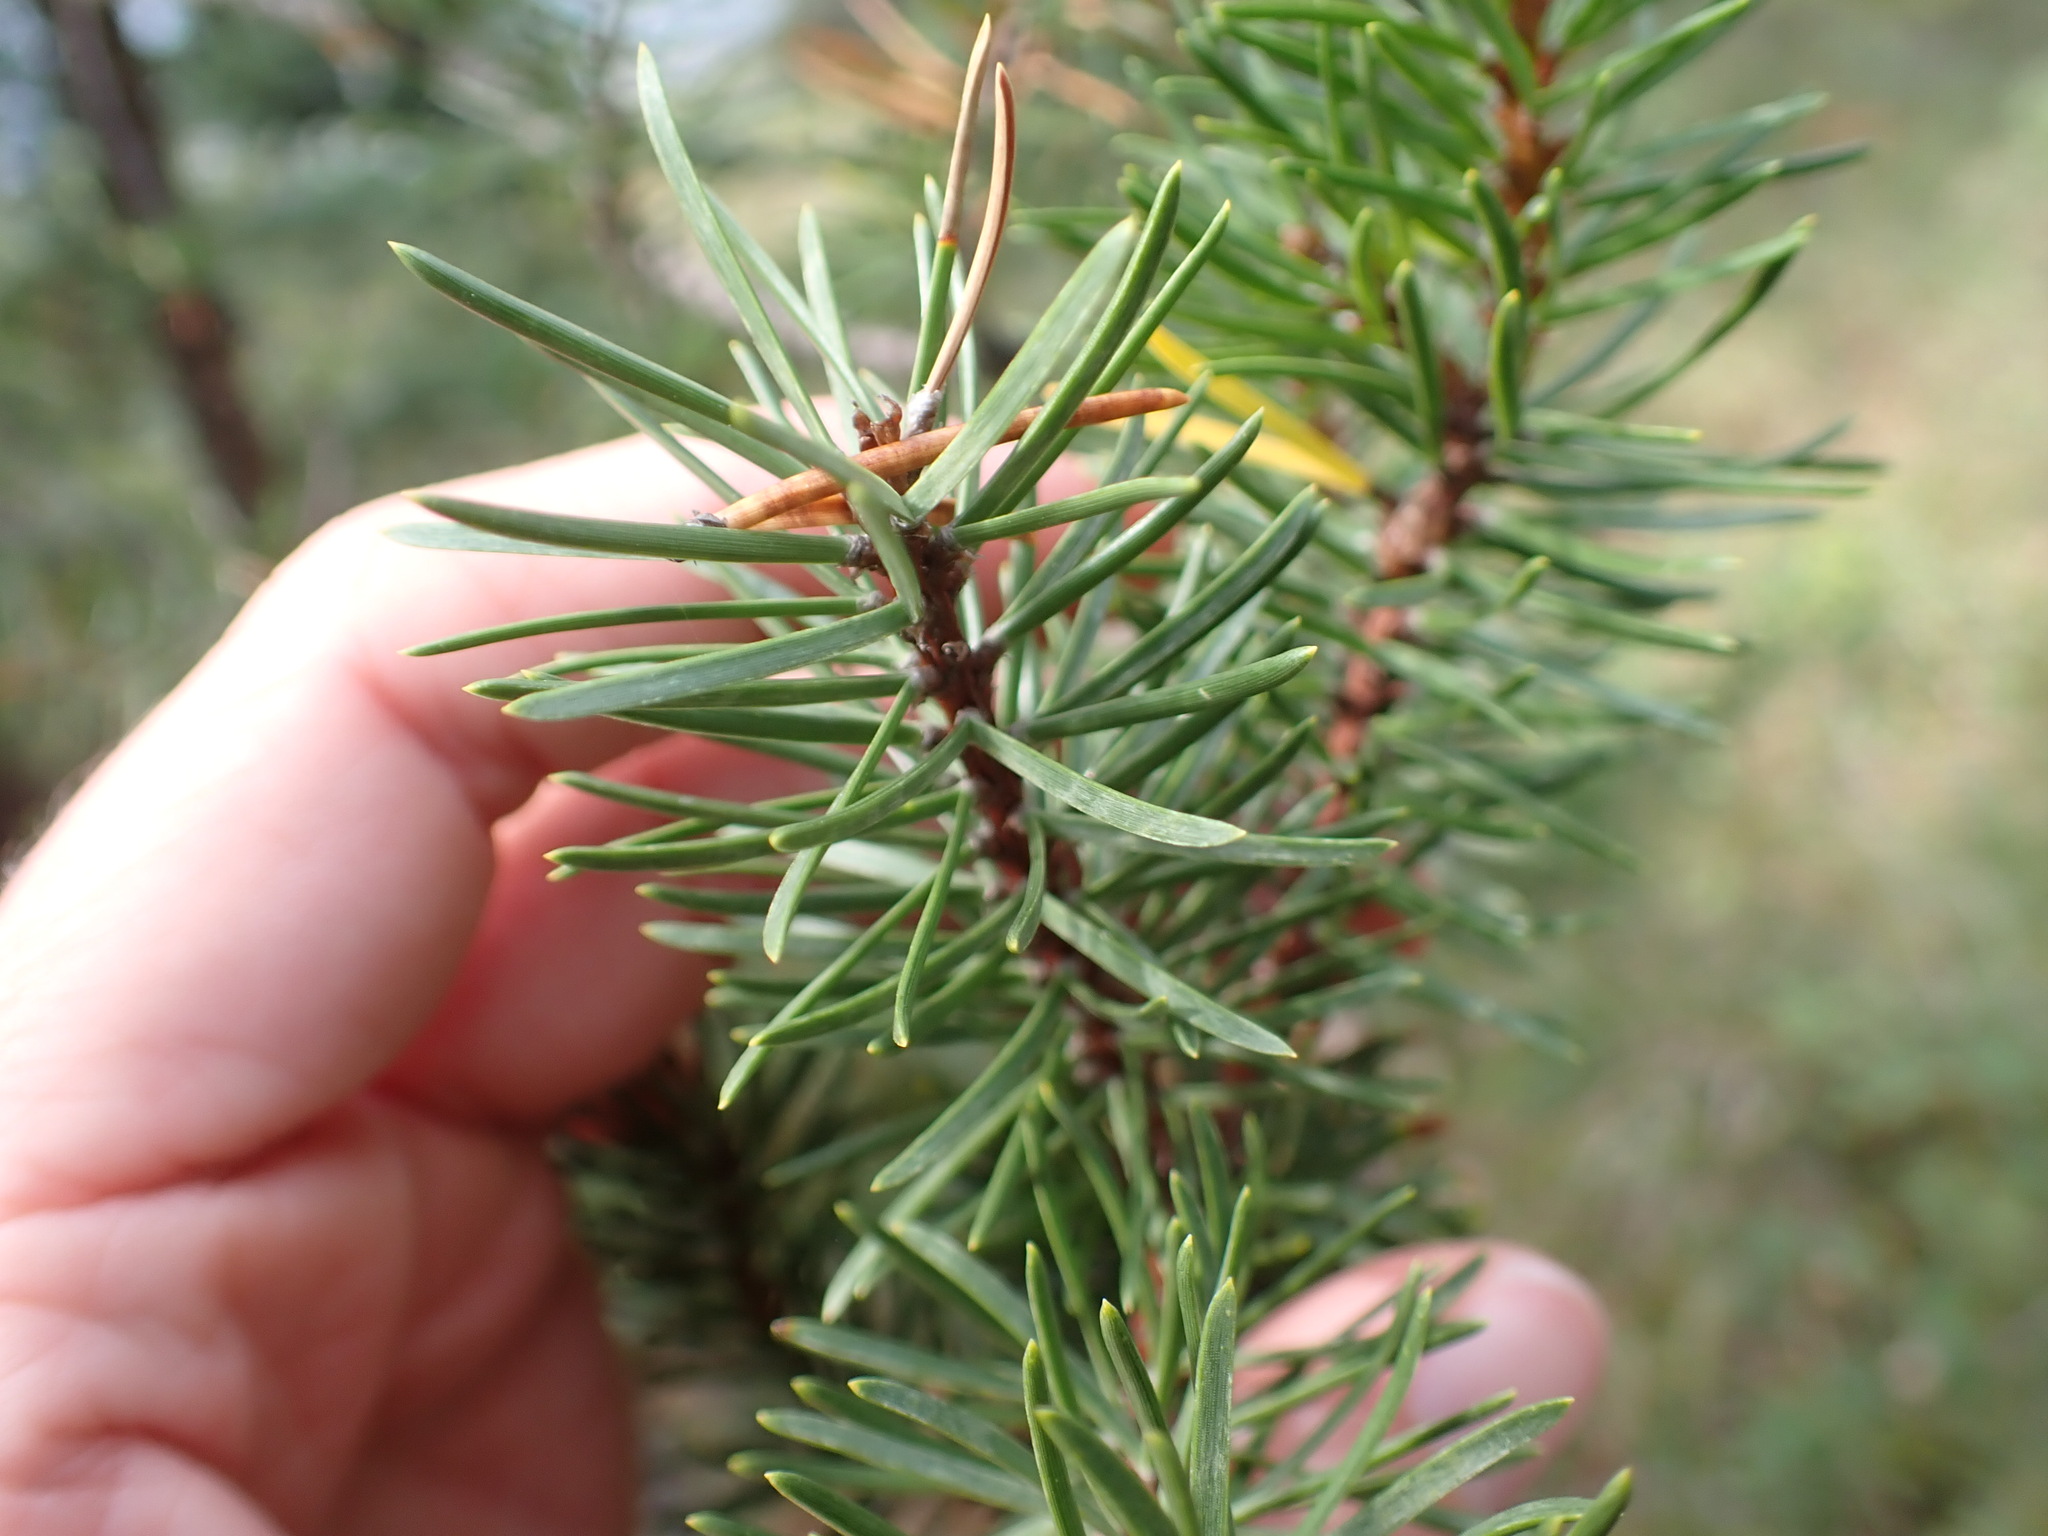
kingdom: Plantae
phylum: Tracheophyta
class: Pinopsida
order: Pinales
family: Pinaceae
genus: Pinus
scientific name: Pinus banksiana
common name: Jack pine
